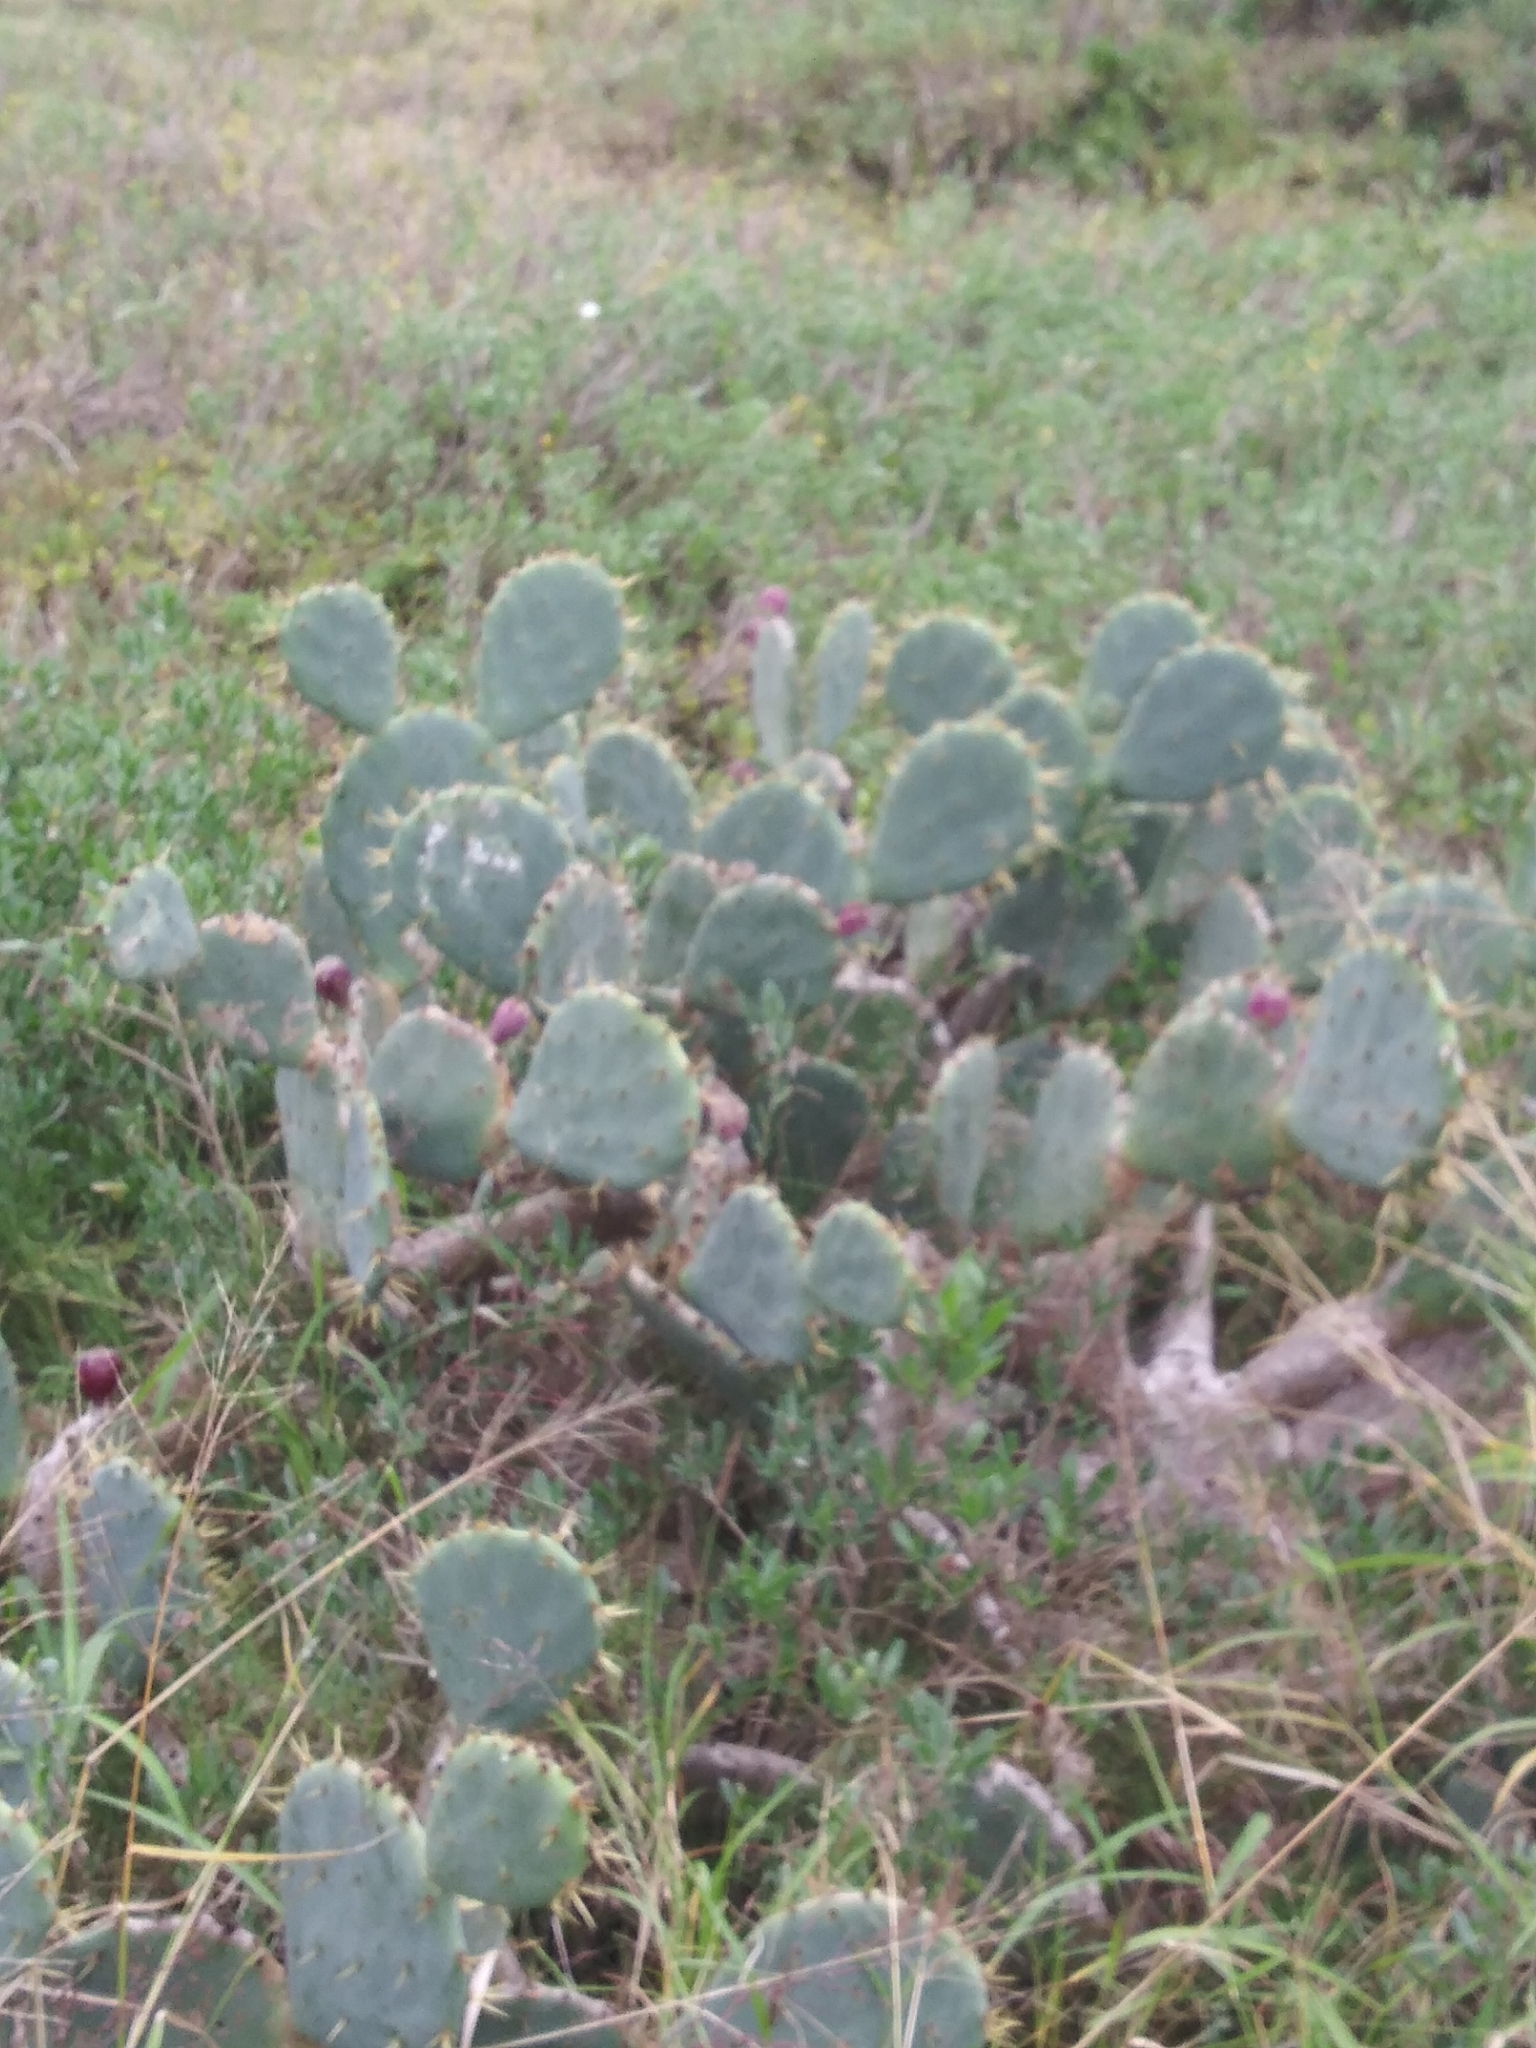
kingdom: Plantae
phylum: Tracheophyta
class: Magnoliopsida
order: Caryophyllales
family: Cactaceae
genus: Opuntia
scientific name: Opuntia engelmannii
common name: Cactus-apple
